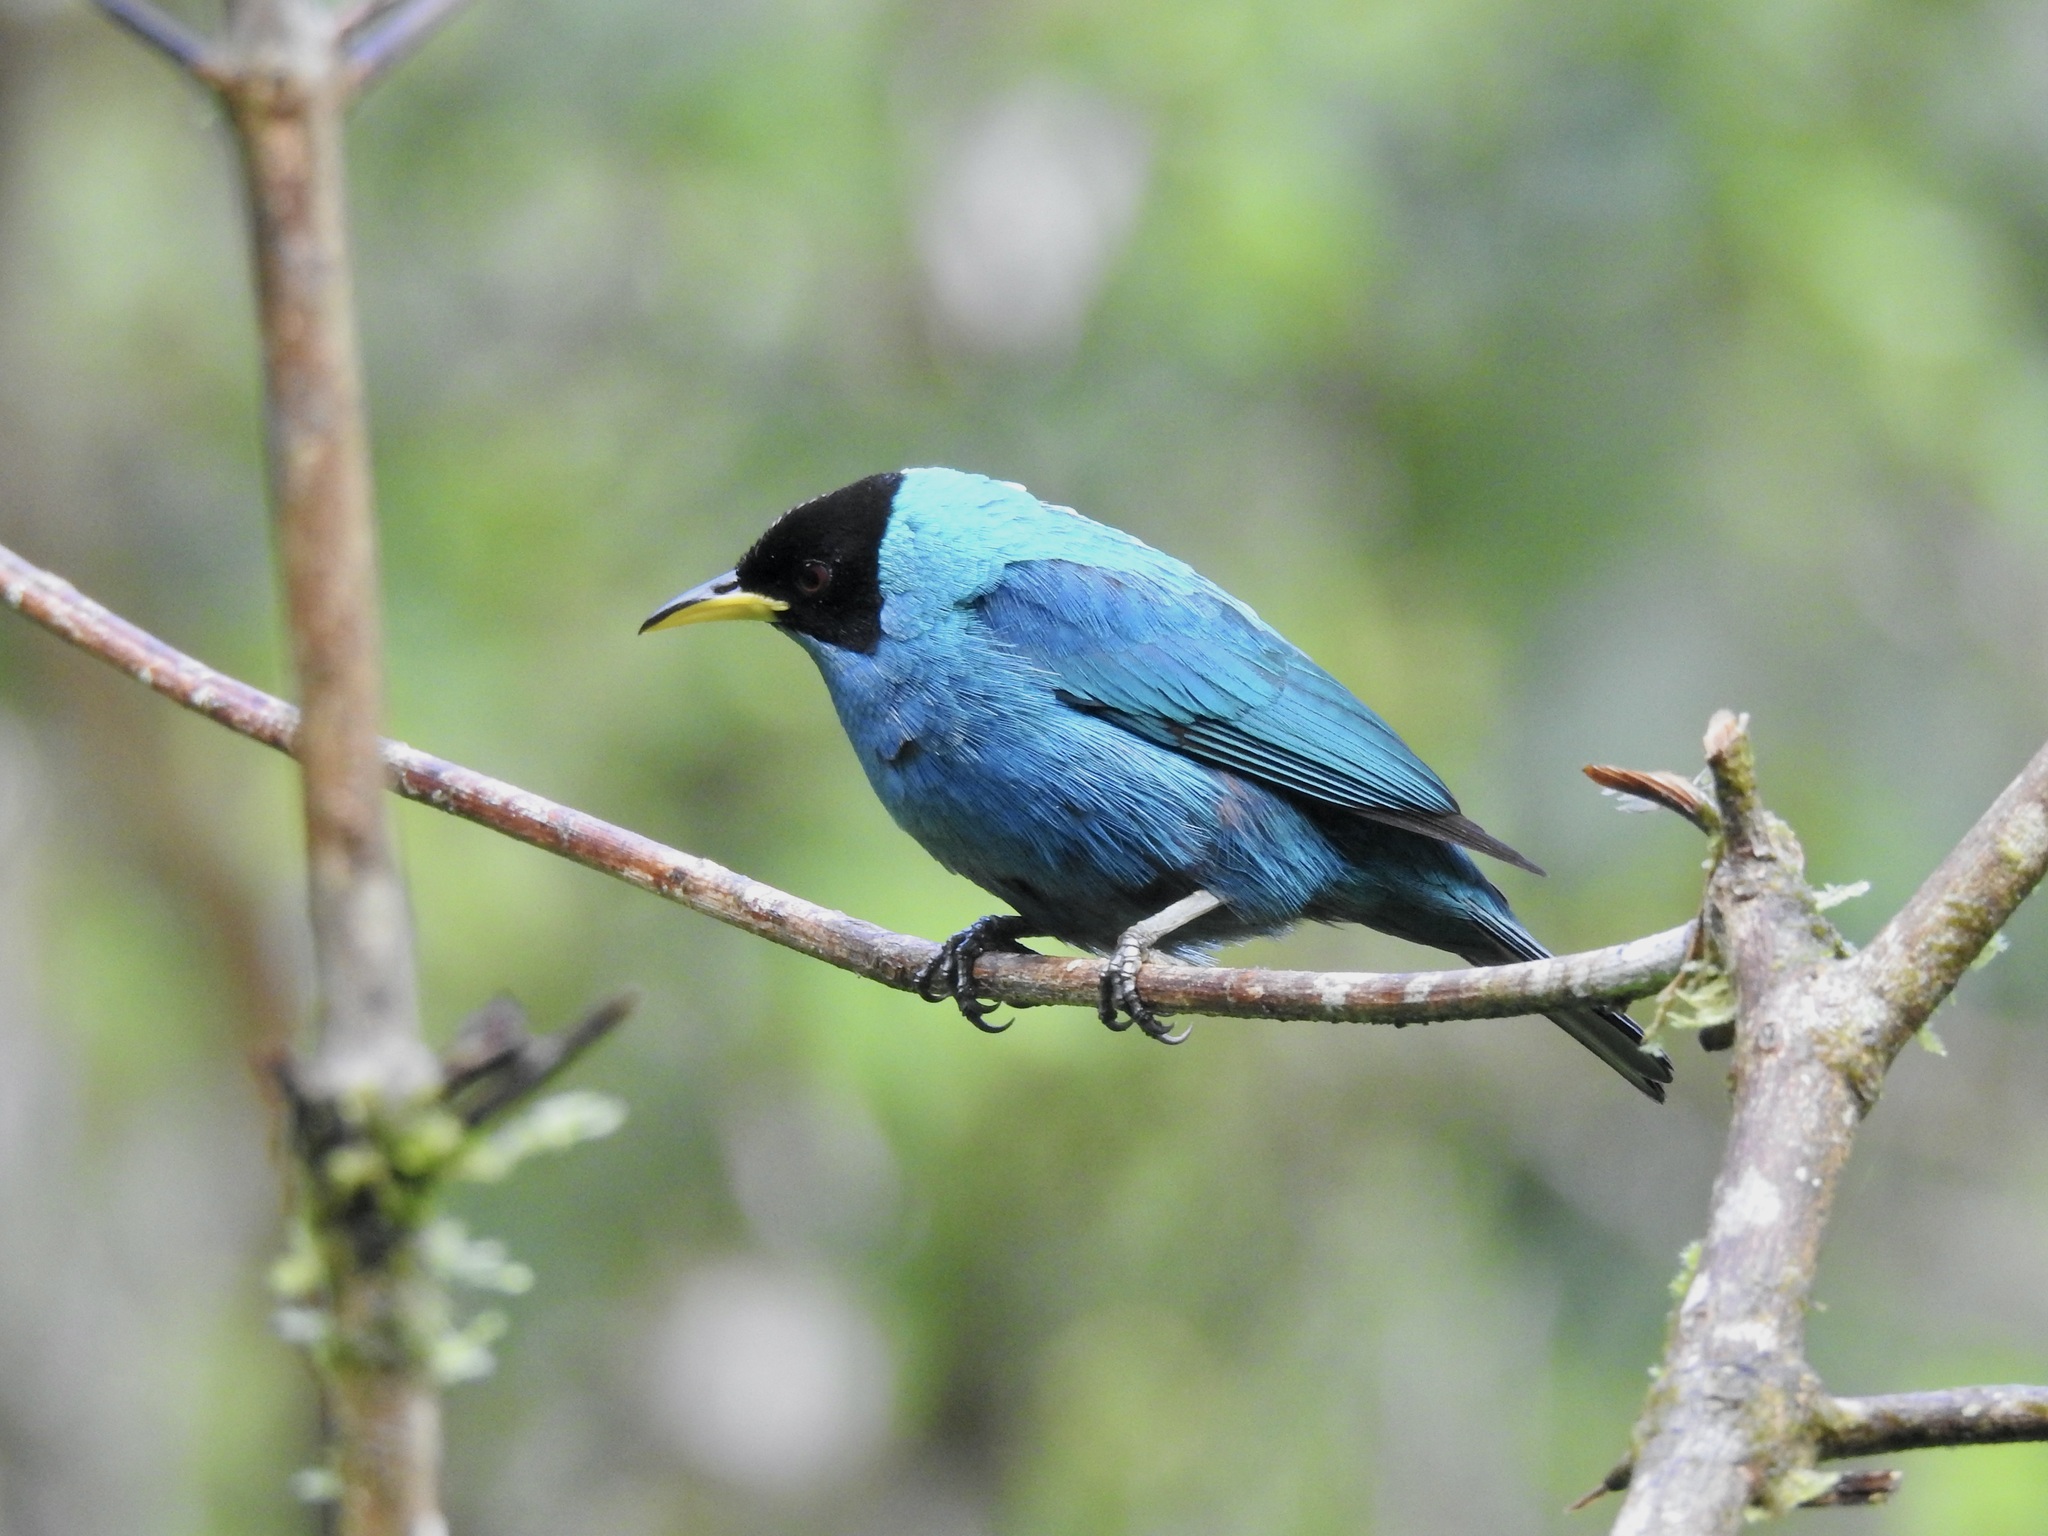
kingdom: Animalia
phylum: Chordata
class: Aves
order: Passeriformes
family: Thraupidae
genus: Chlorophanes
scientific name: Chlorophanes spiza
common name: Green honeycreeper
